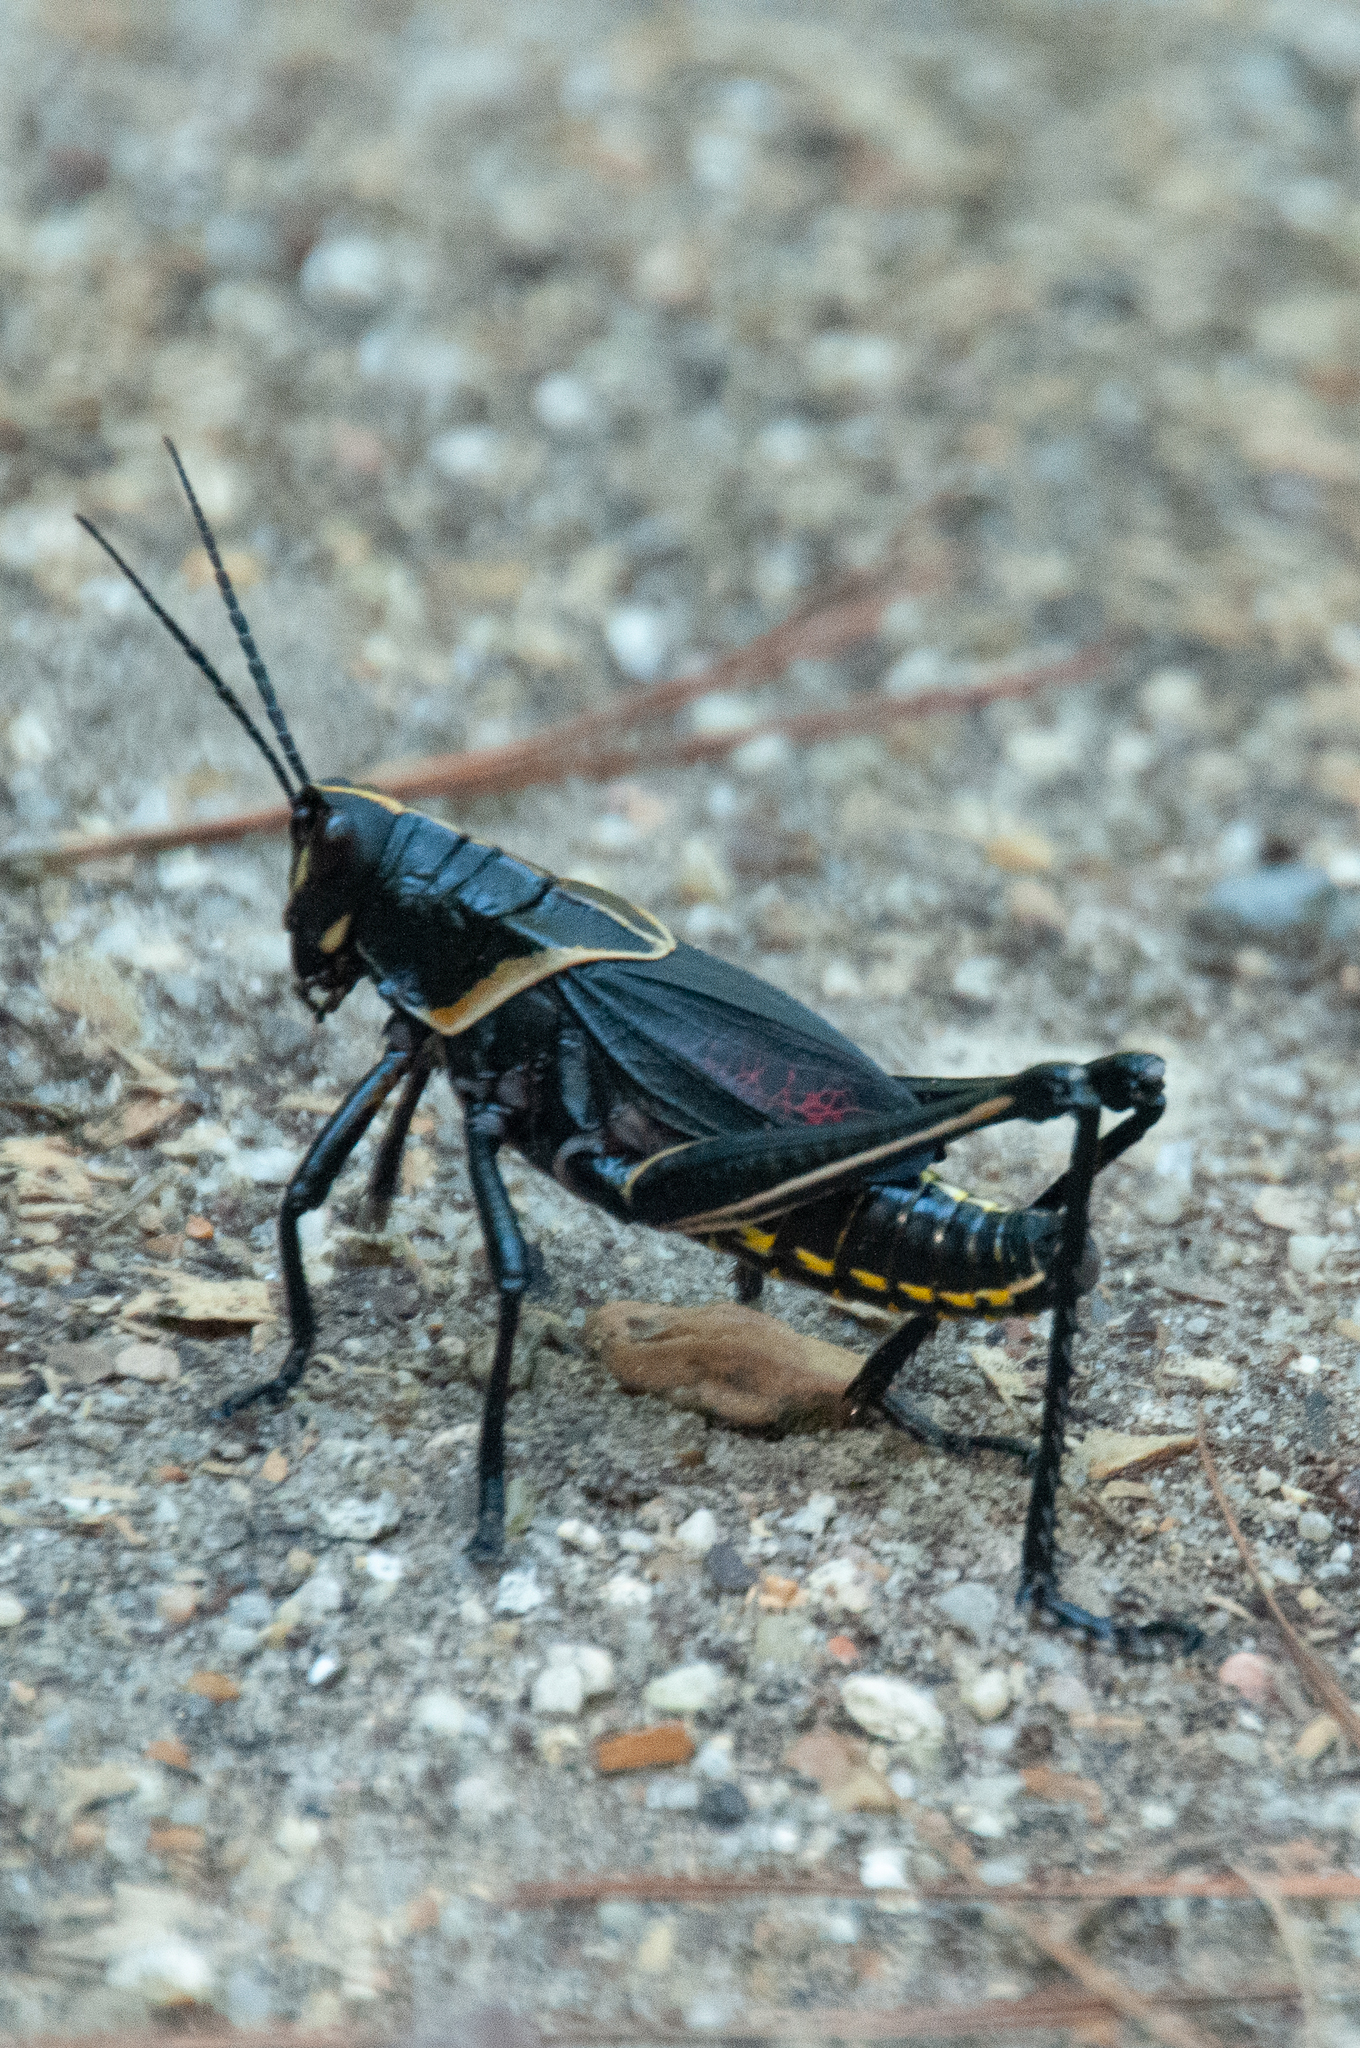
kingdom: Animalia
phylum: Arthropoda
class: Insecta
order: Orthoptera
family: Romaleidae
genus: Romalea
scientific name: Romalea microptera
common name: Eastern lubber grasshopper
